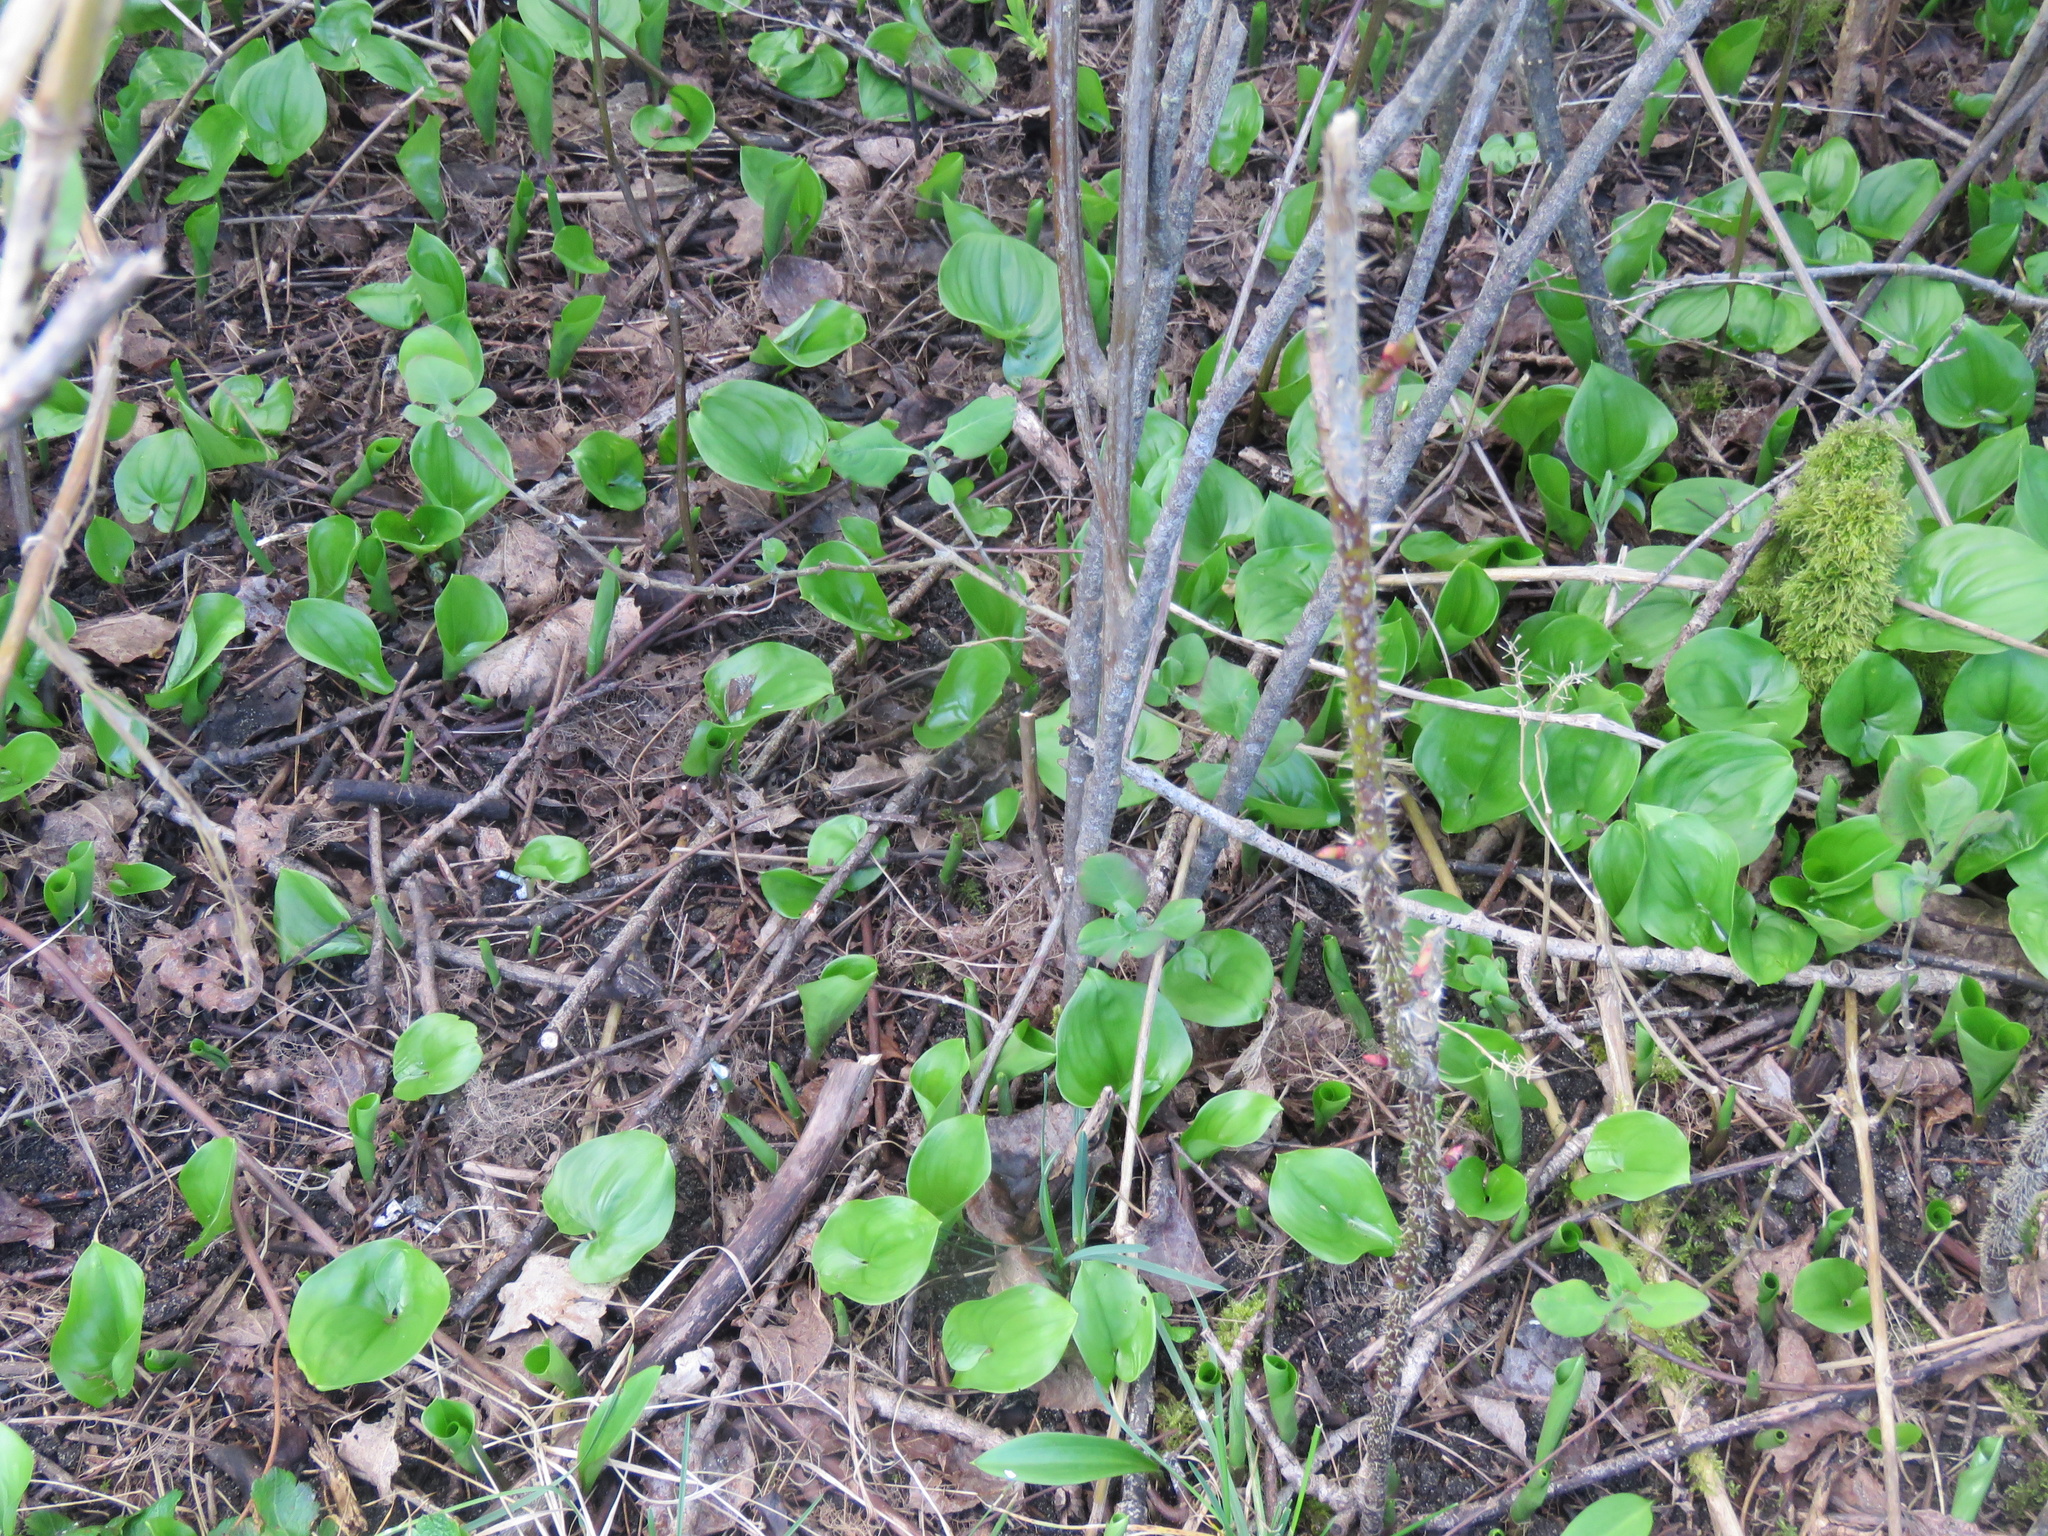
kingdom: Plantae
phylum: Tracheophyta
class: Liliopsida
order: Asparagales
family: Asparagaceae
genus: Maianthemum
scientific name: Maianthemum dilatatum
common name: False lily-of-the-valley
